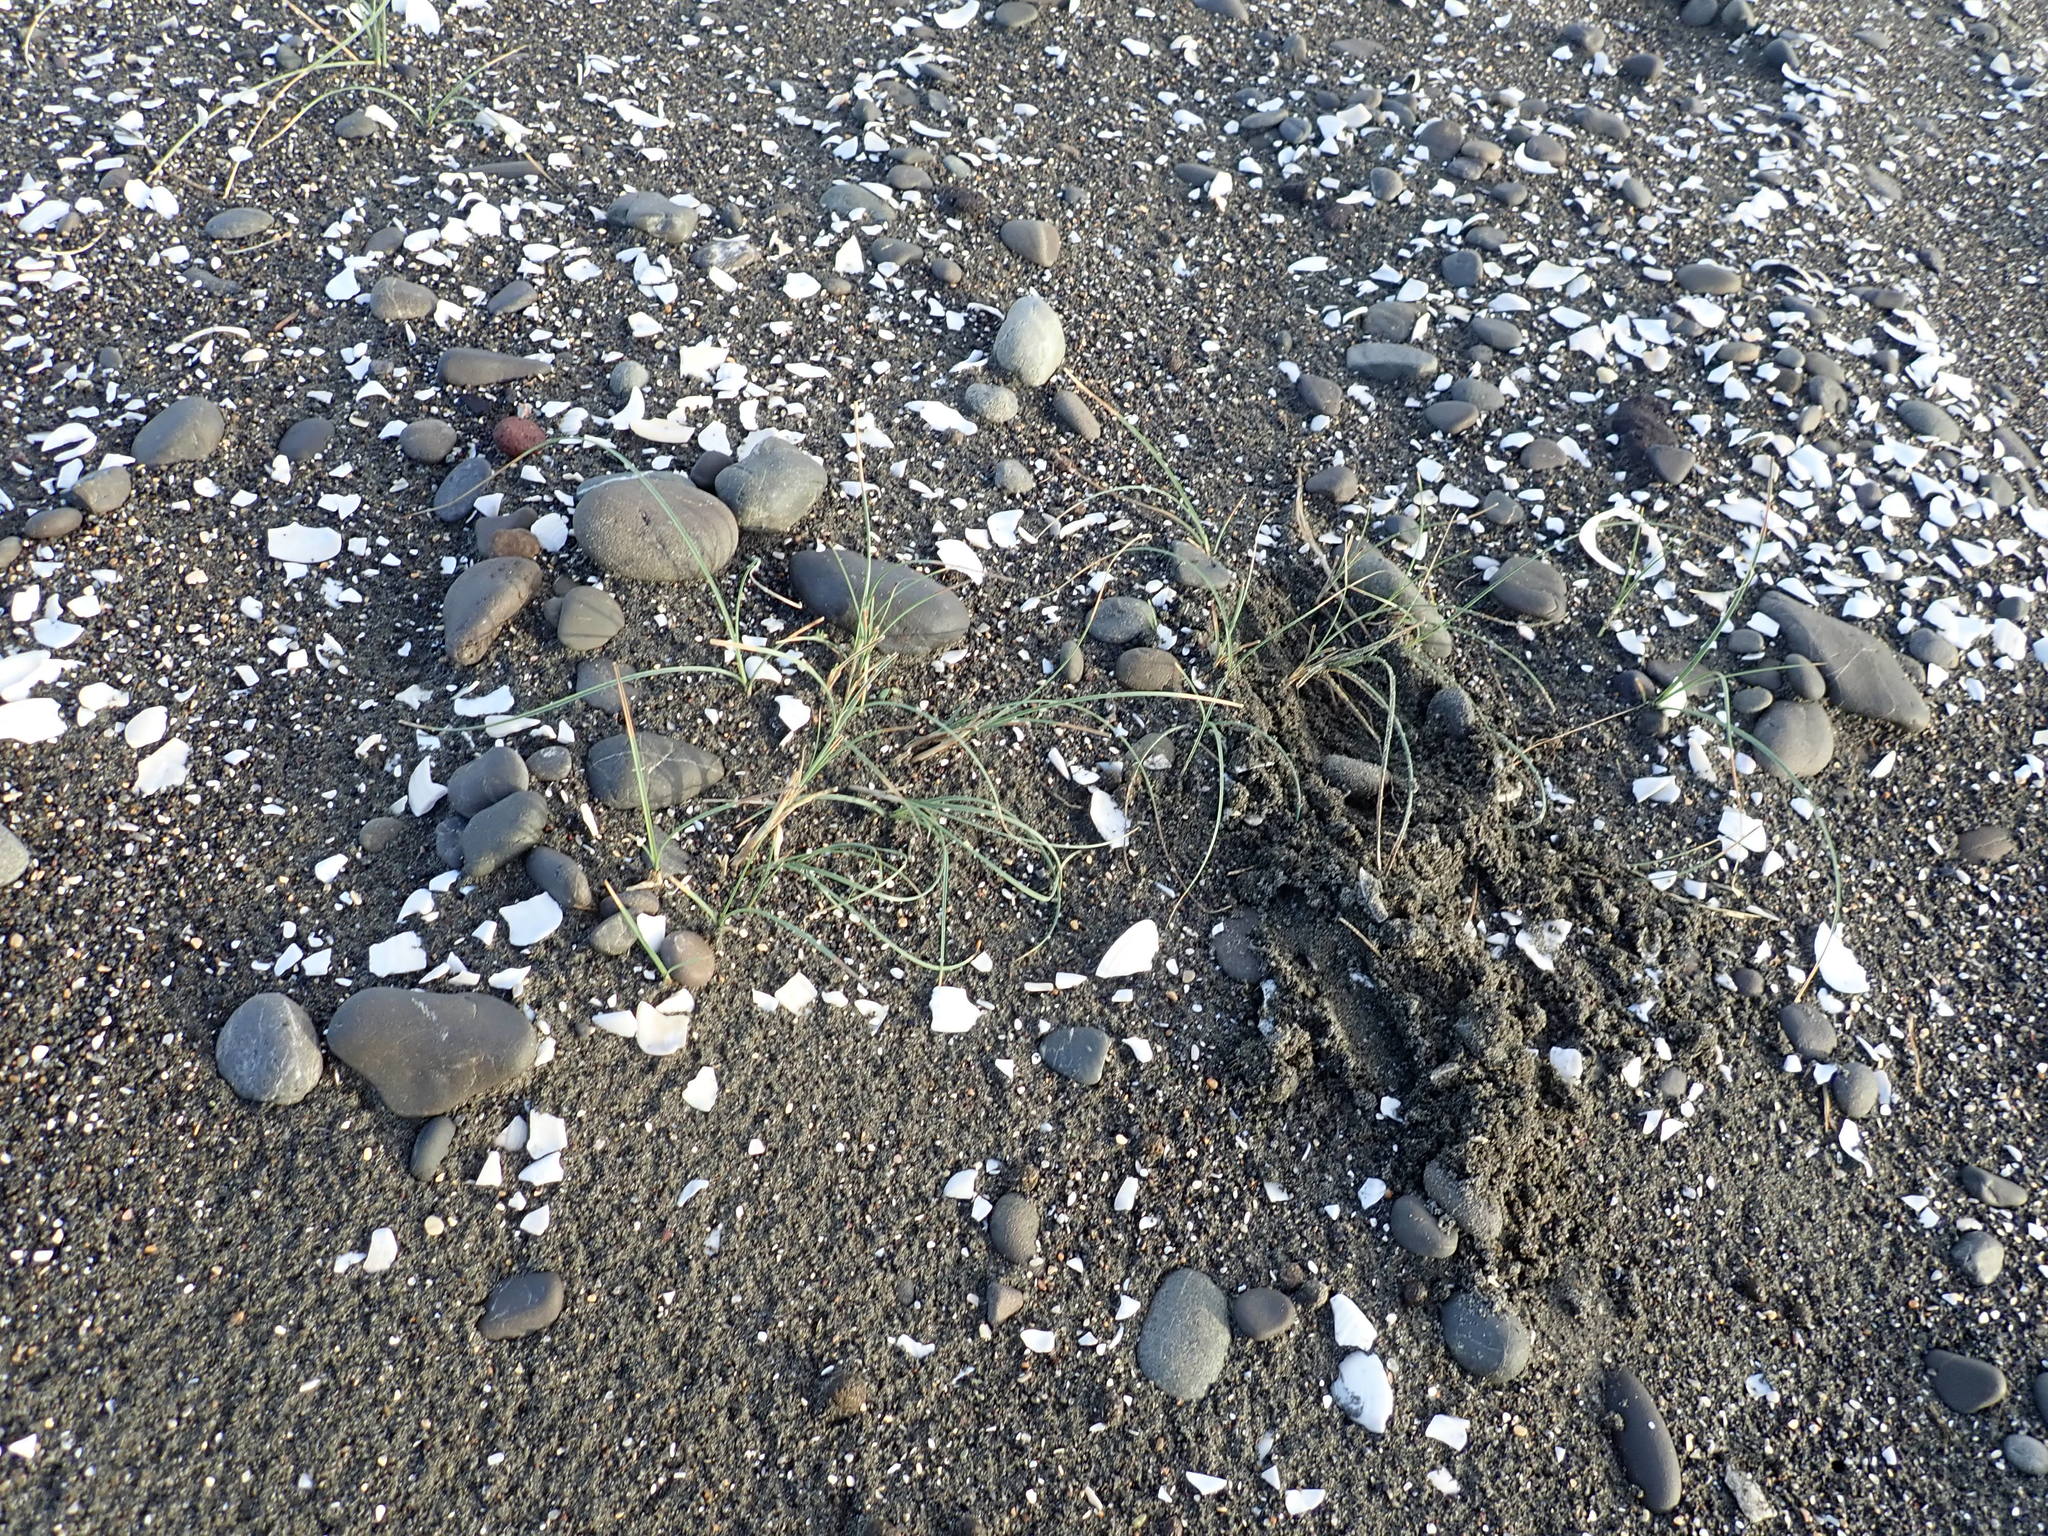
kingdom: Plantae
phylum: Tracheophyta
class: Liliopsida
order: Poales
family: Cyperaceae
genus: Carex
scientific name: Carex pumila
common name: Dwarf sedge
